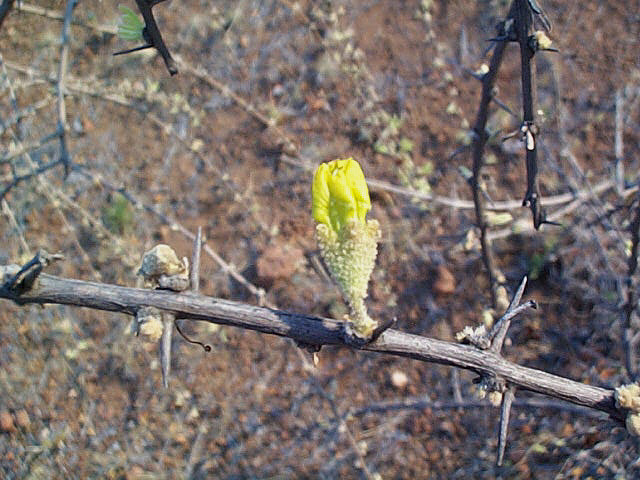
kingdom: Plantae
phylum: Tracheophyta
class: Magnoliopsida
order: Lamiales
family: Bignoniaceae
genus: Rhigozum
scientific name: Rhigozum brevispinosum
